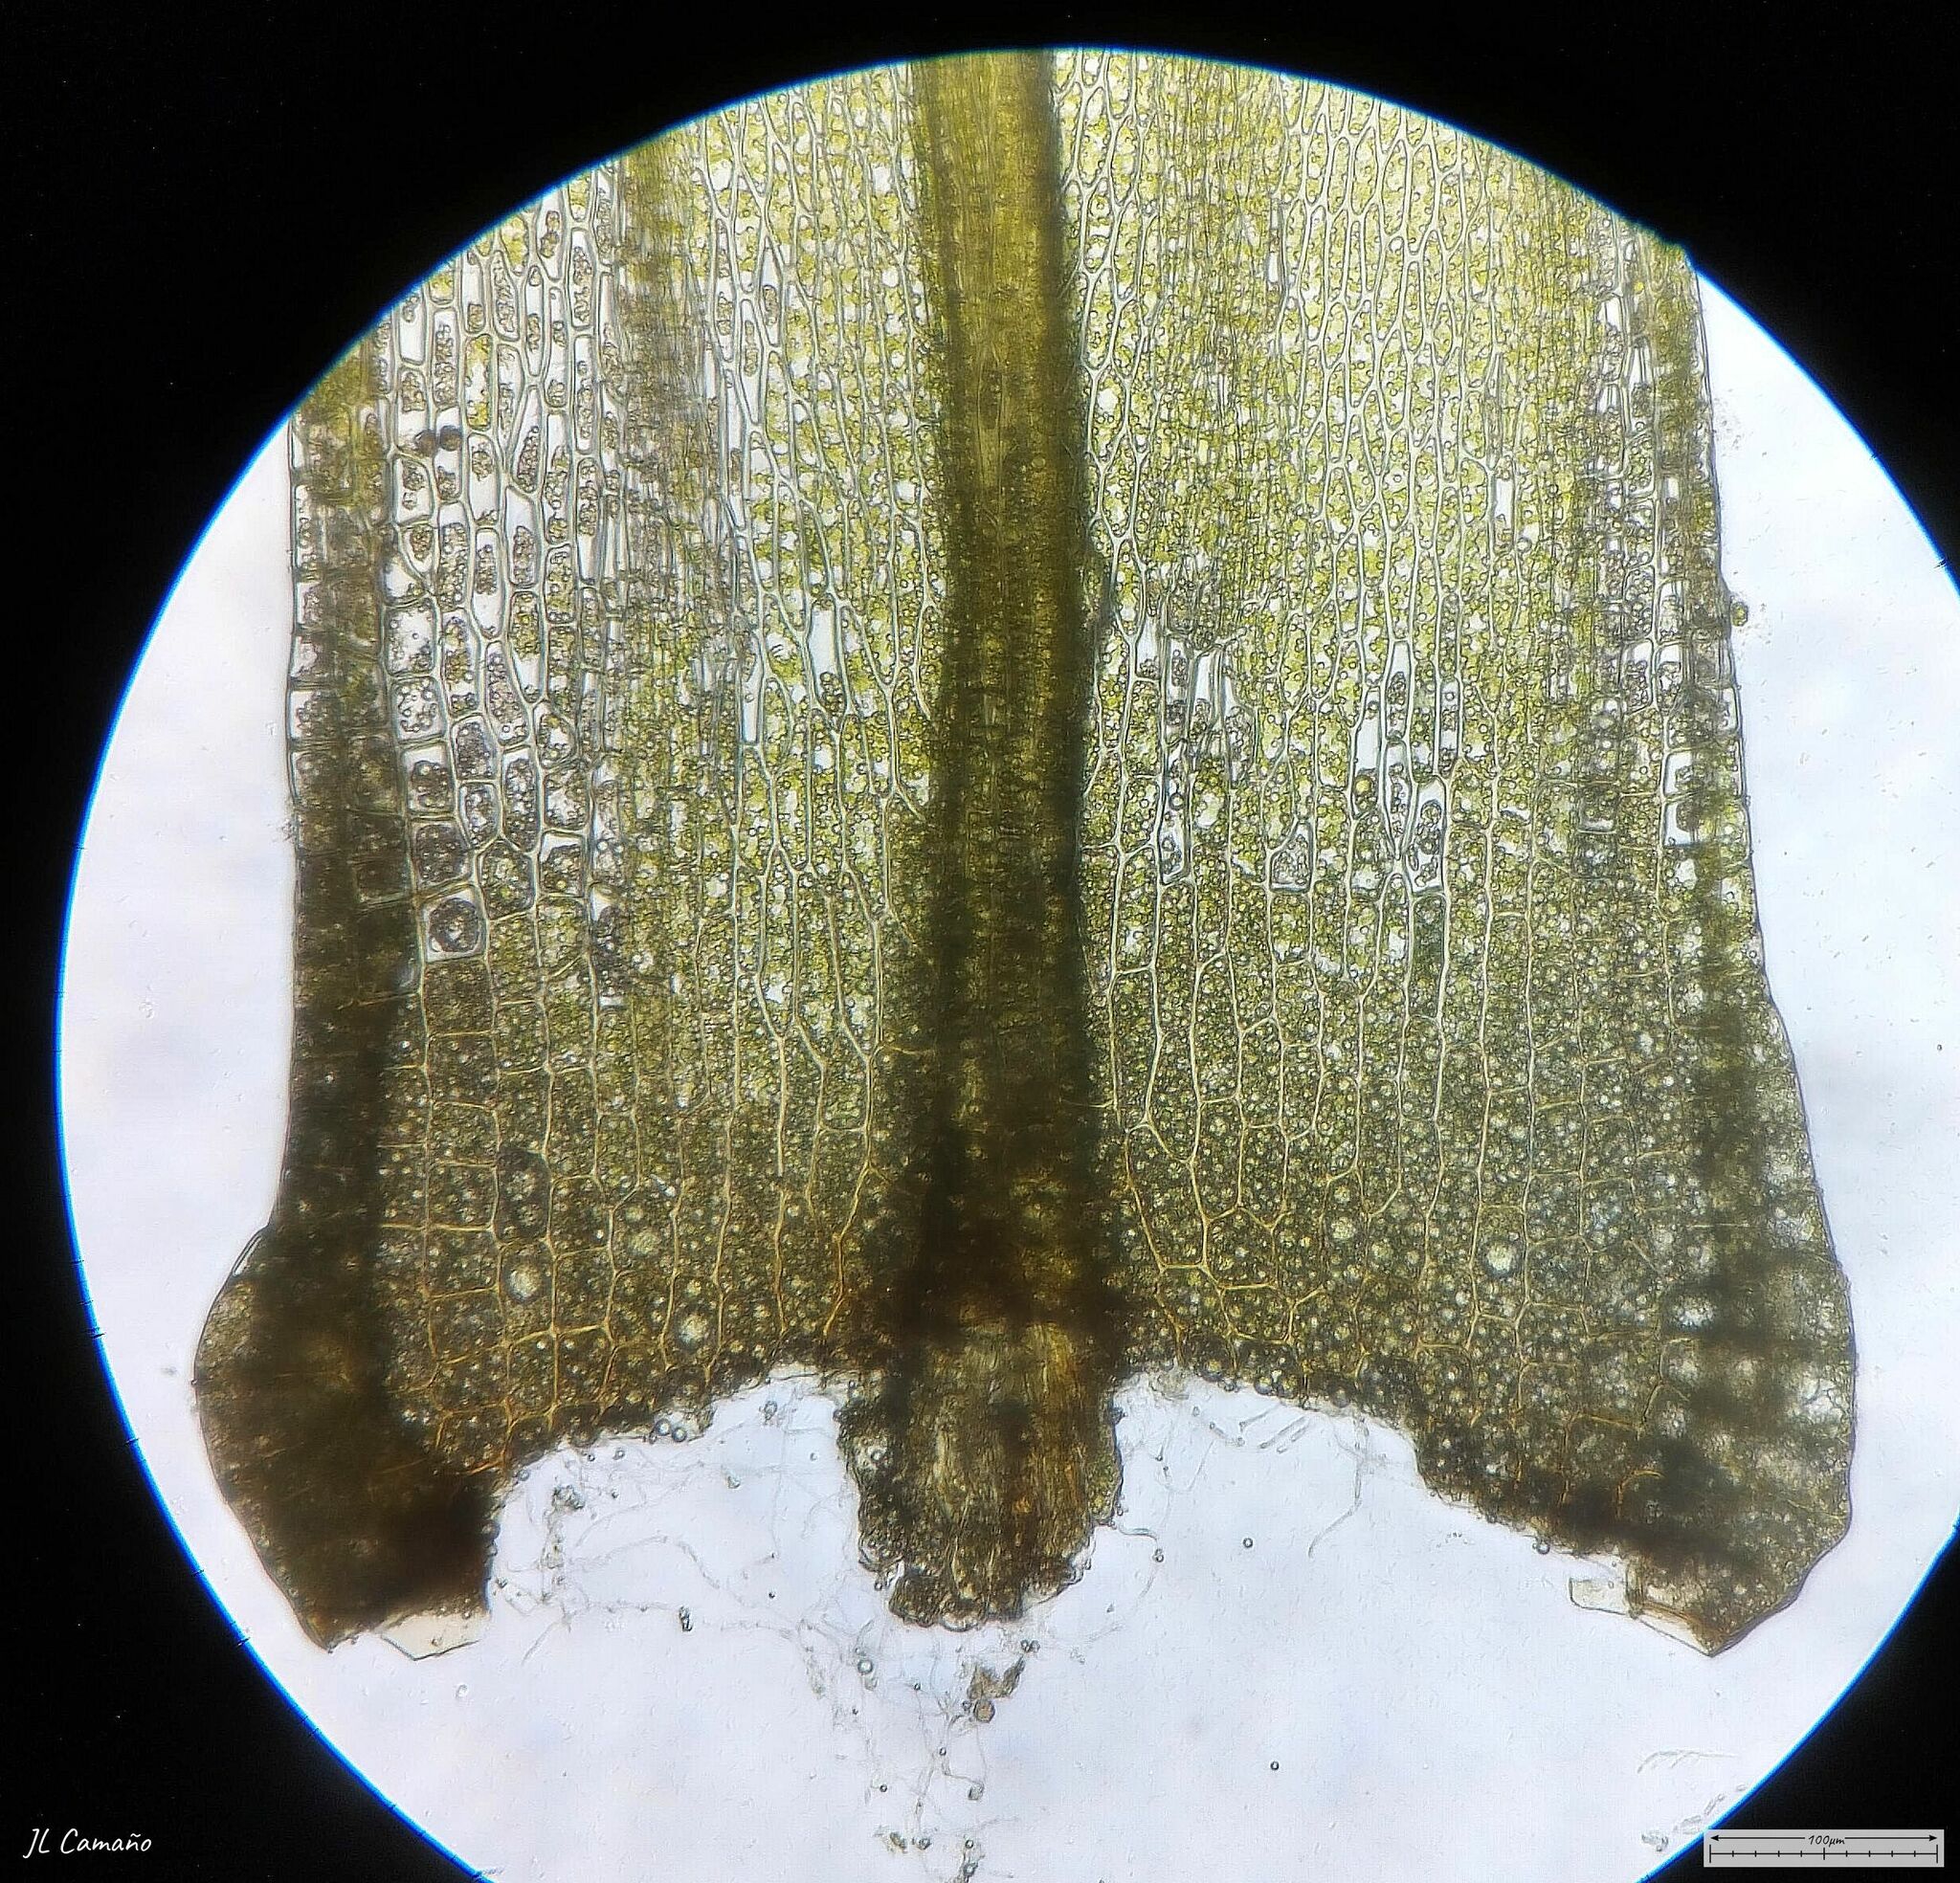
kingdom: Plantae
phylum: Bryophyta
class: Bryopsida
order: Bryales
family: Bryaceae
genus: Imbribryum
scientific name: Imbribryum alpinum
